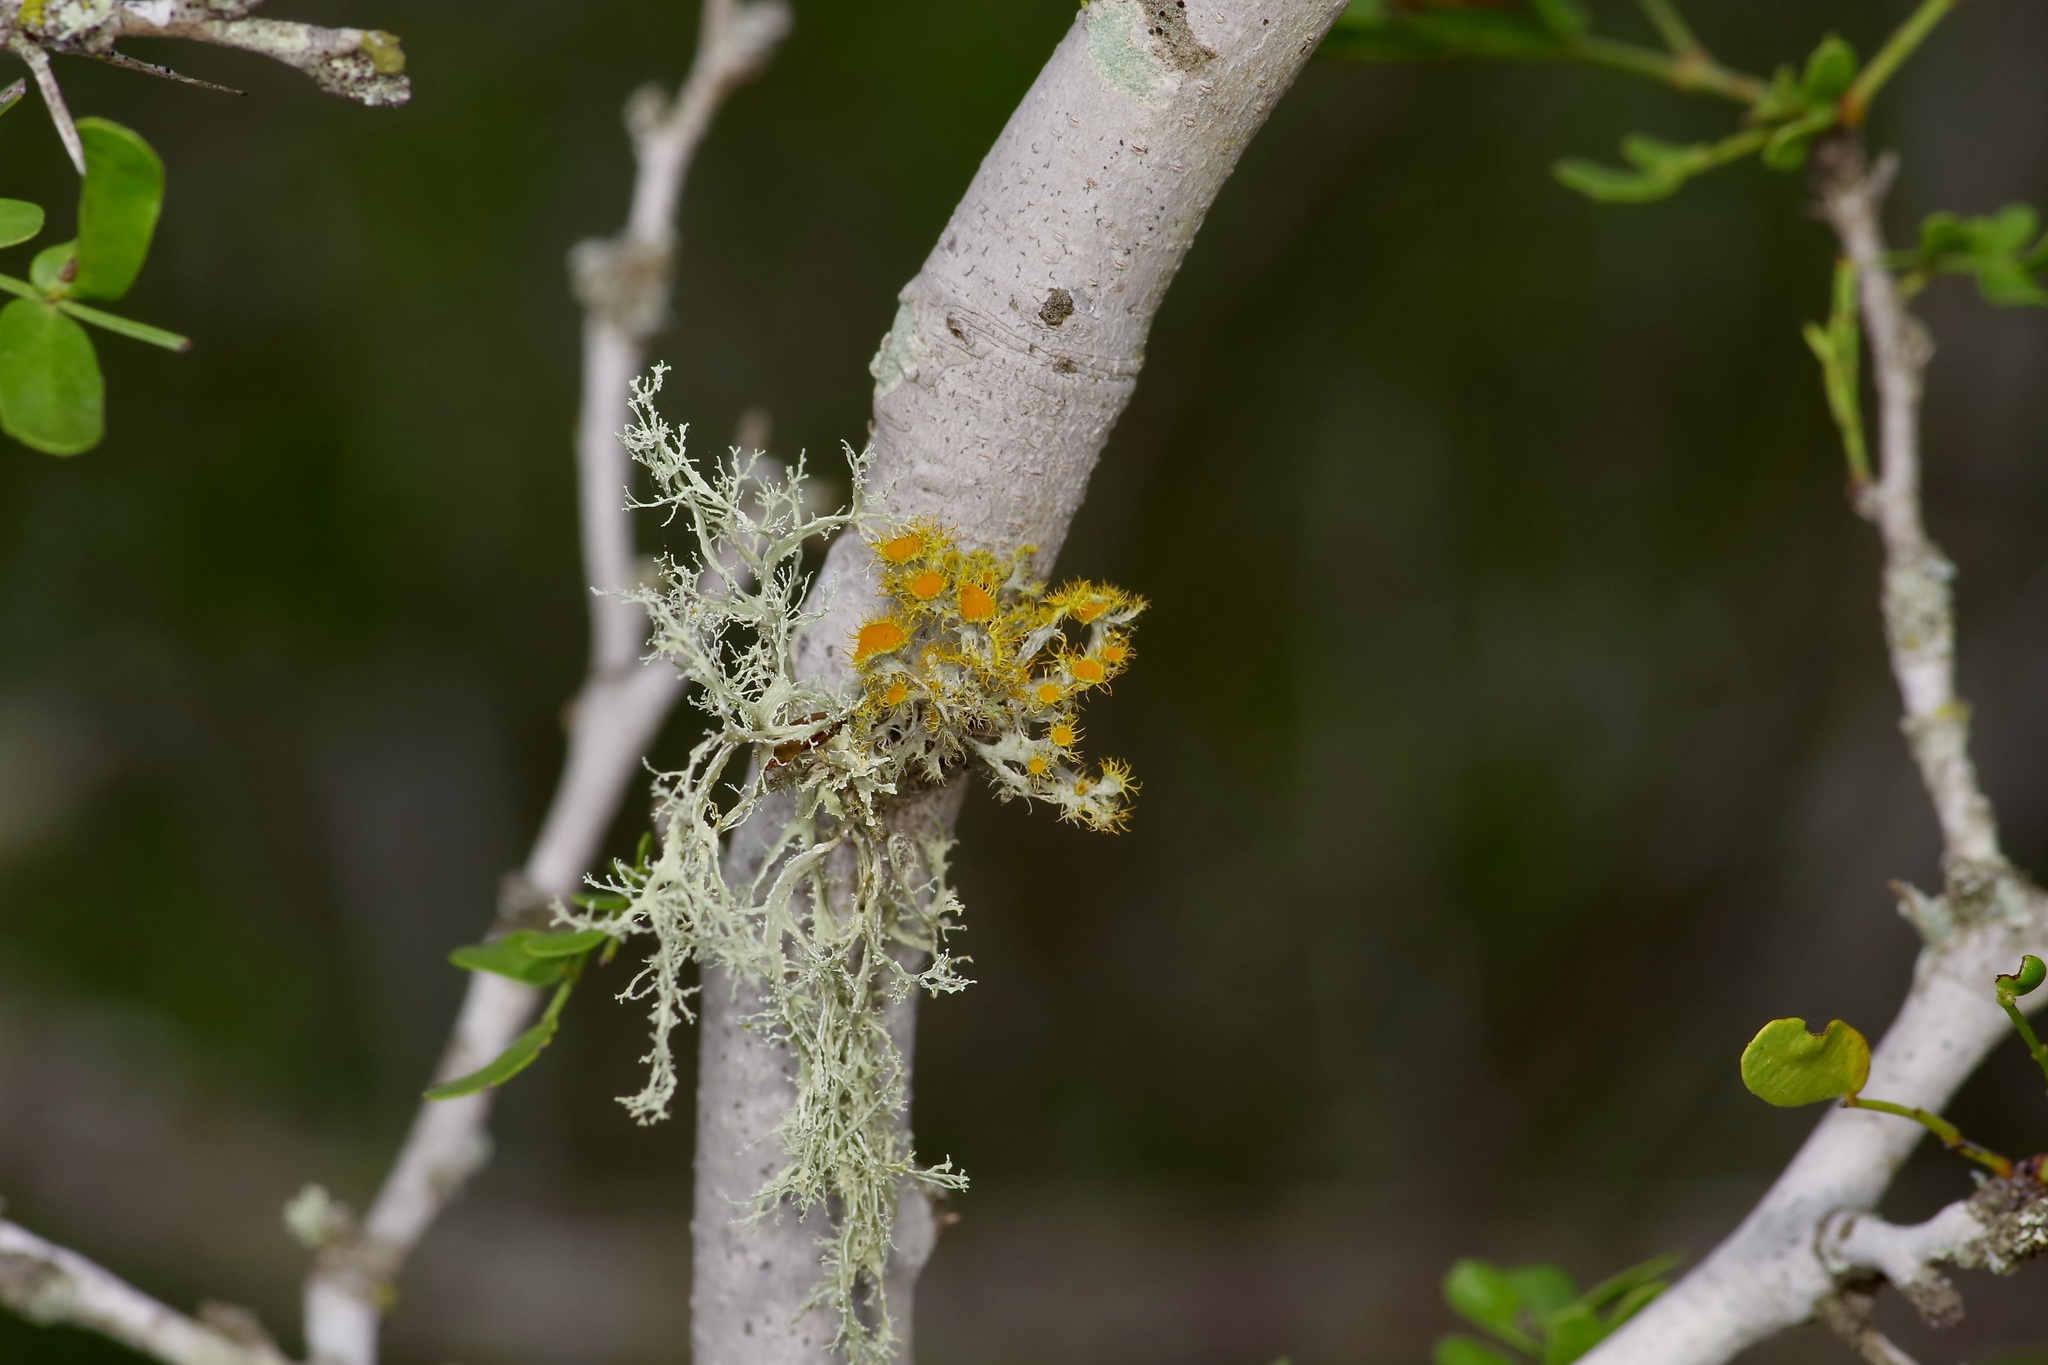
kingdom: Fungi
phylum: Ascomycota
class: Lecanoromycetes
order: Teloschistales
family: Teloschistaceae
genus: Niorma
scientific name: Niorma chrysophthalma
